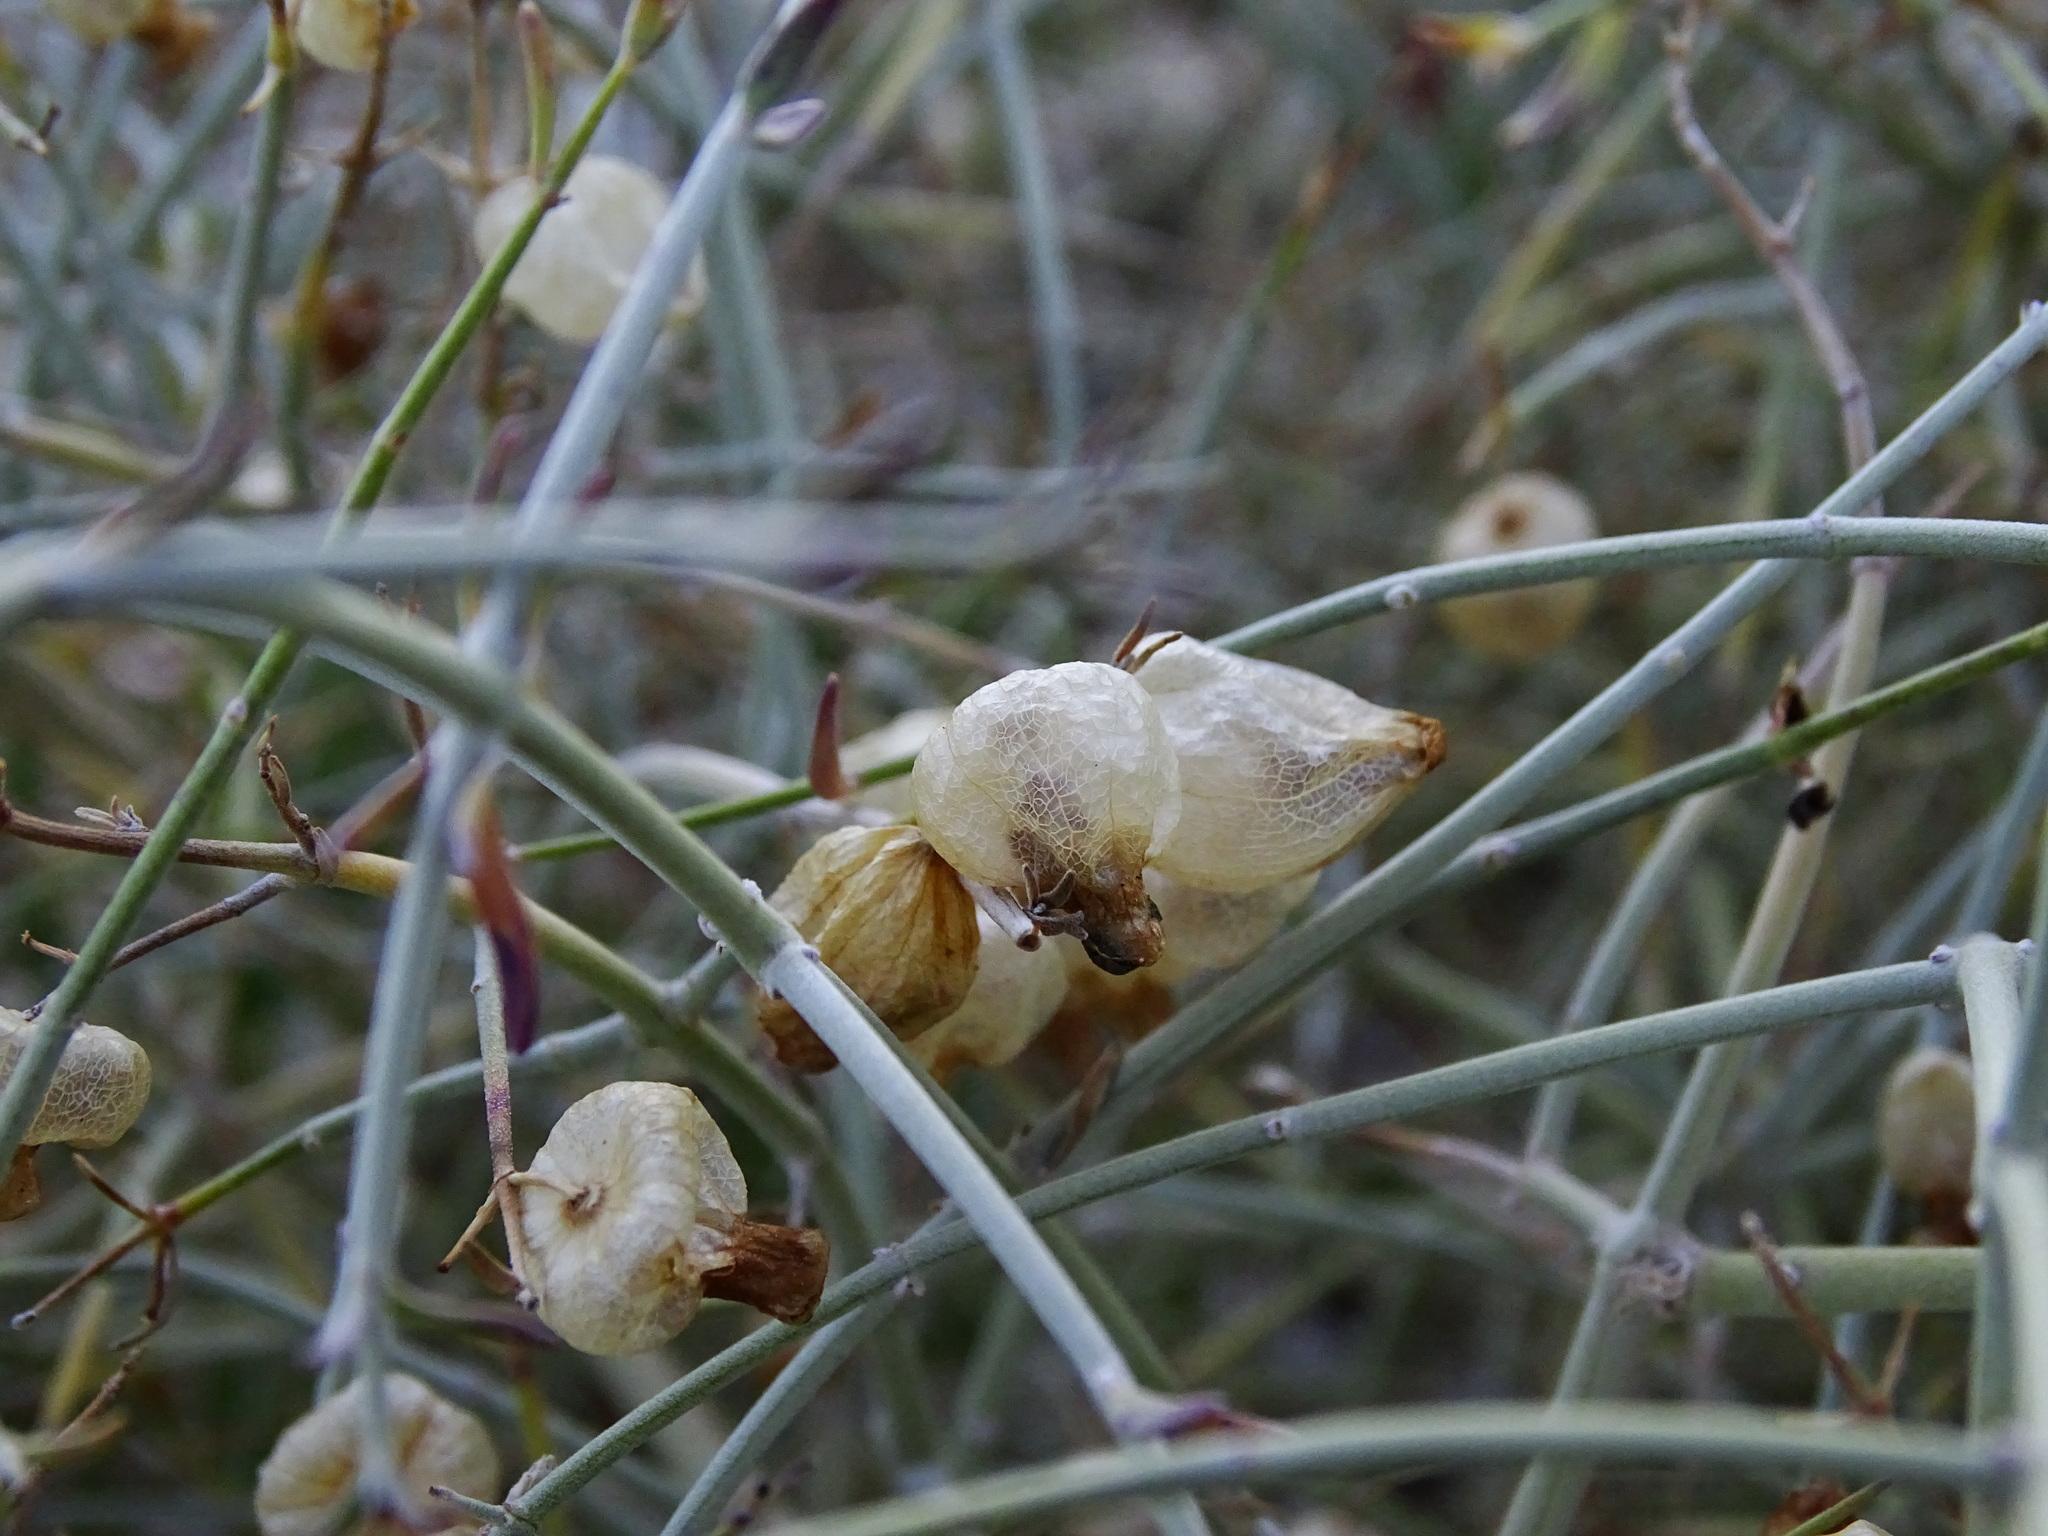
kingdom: Plantae
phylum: Tracheophyta
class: Magnoliopsida
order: Lamiales
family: Lamiaceae
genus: Scutellaria
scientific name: Scutellaria mexicana
